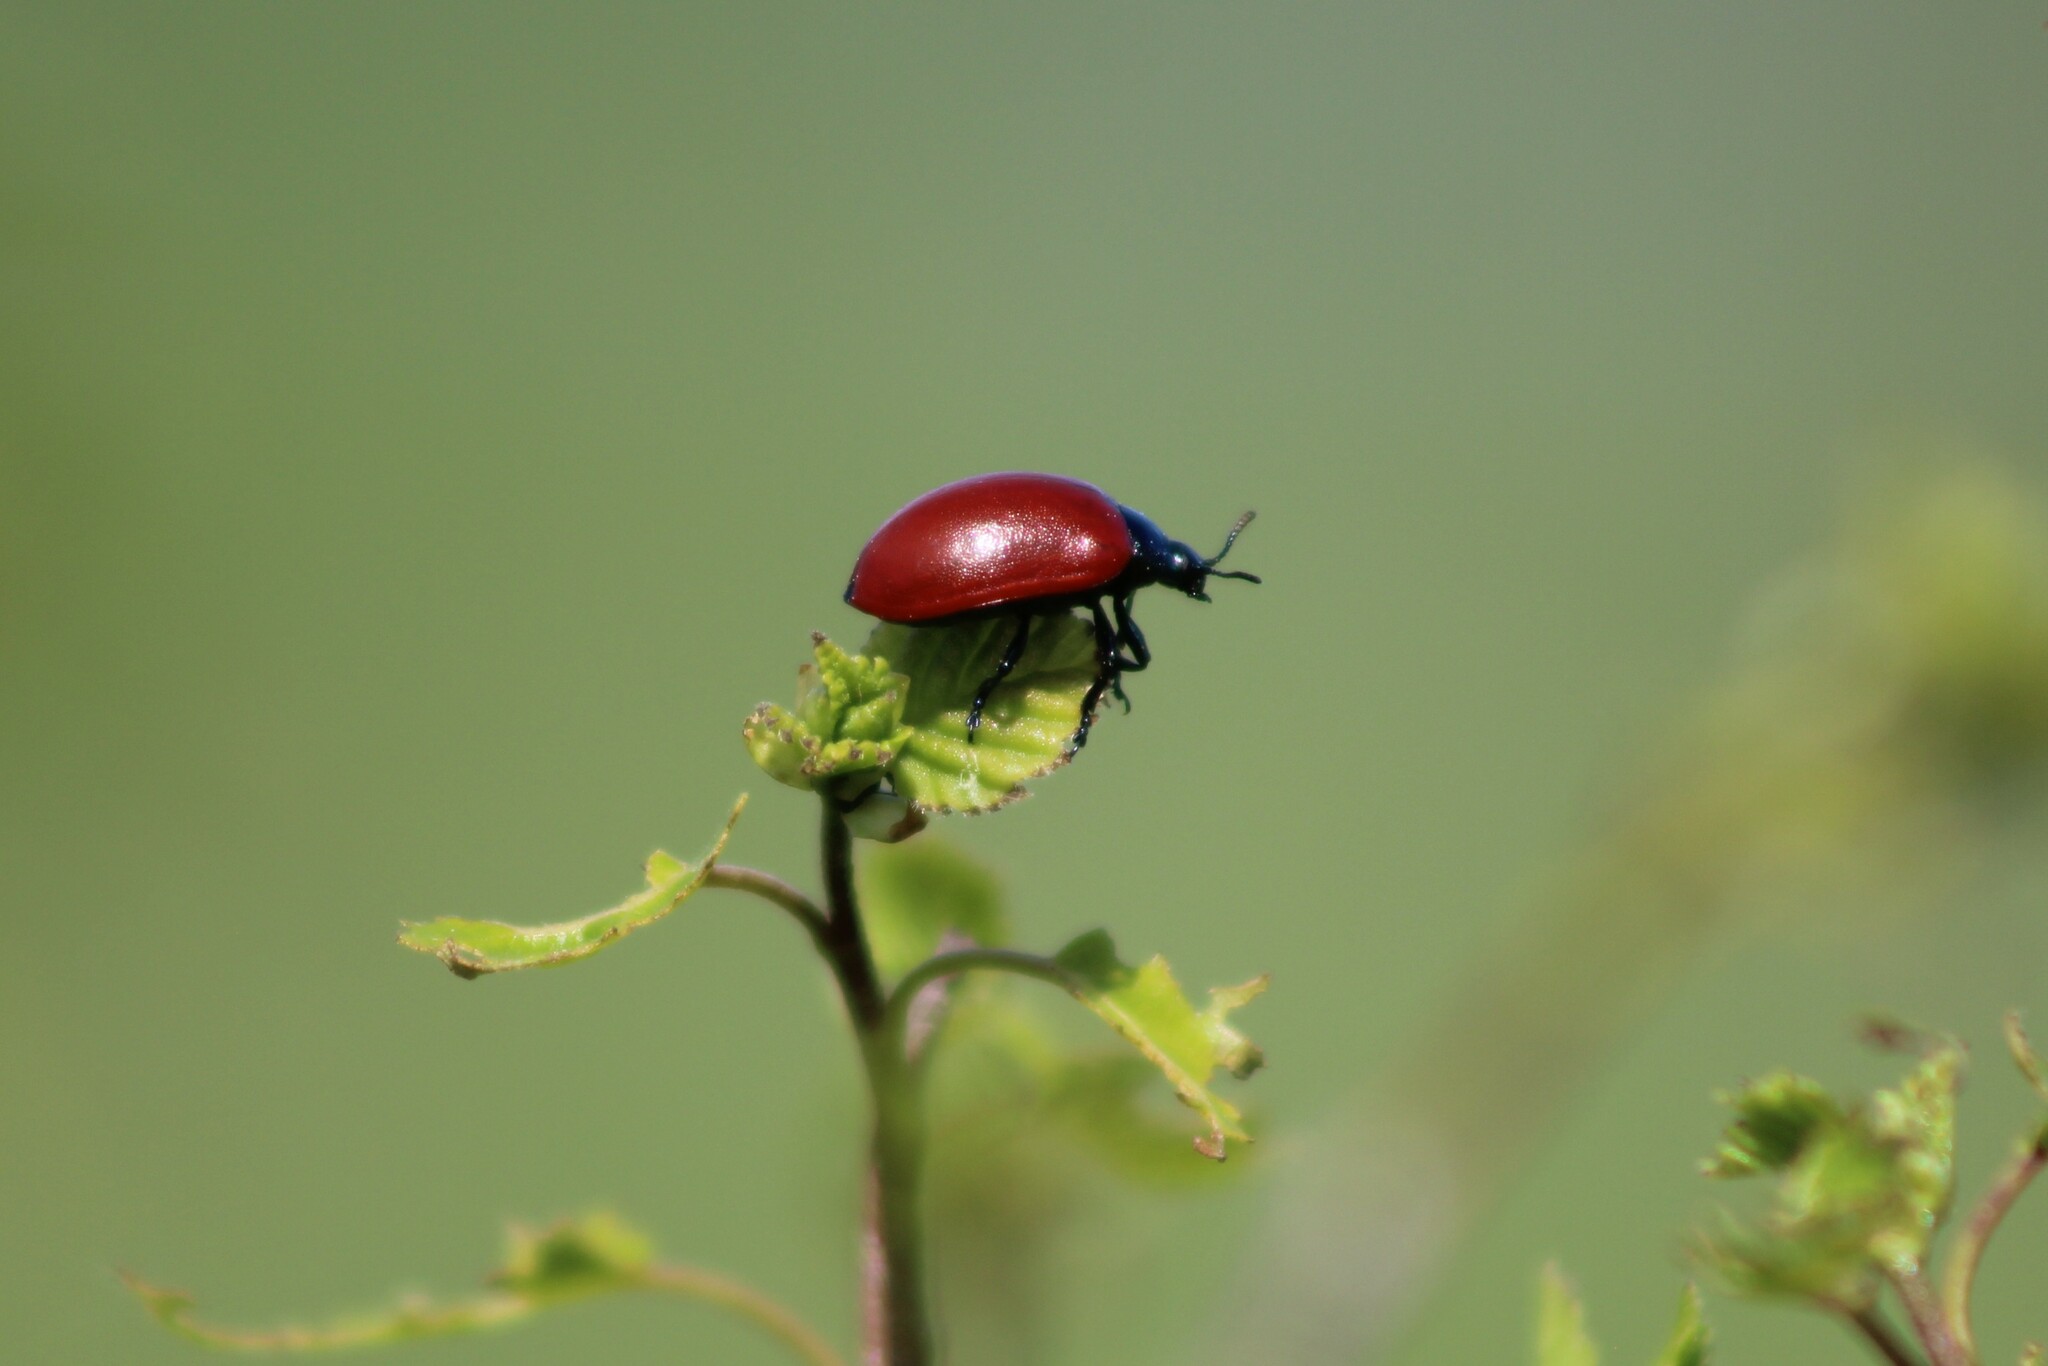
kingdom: Animalia
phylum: Arthropoda
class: Insecta
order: Coleoptera
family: Chrysomelidae
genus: Chrysomela
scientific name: Chrysomela populi
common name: Red poplar leaf beetle
